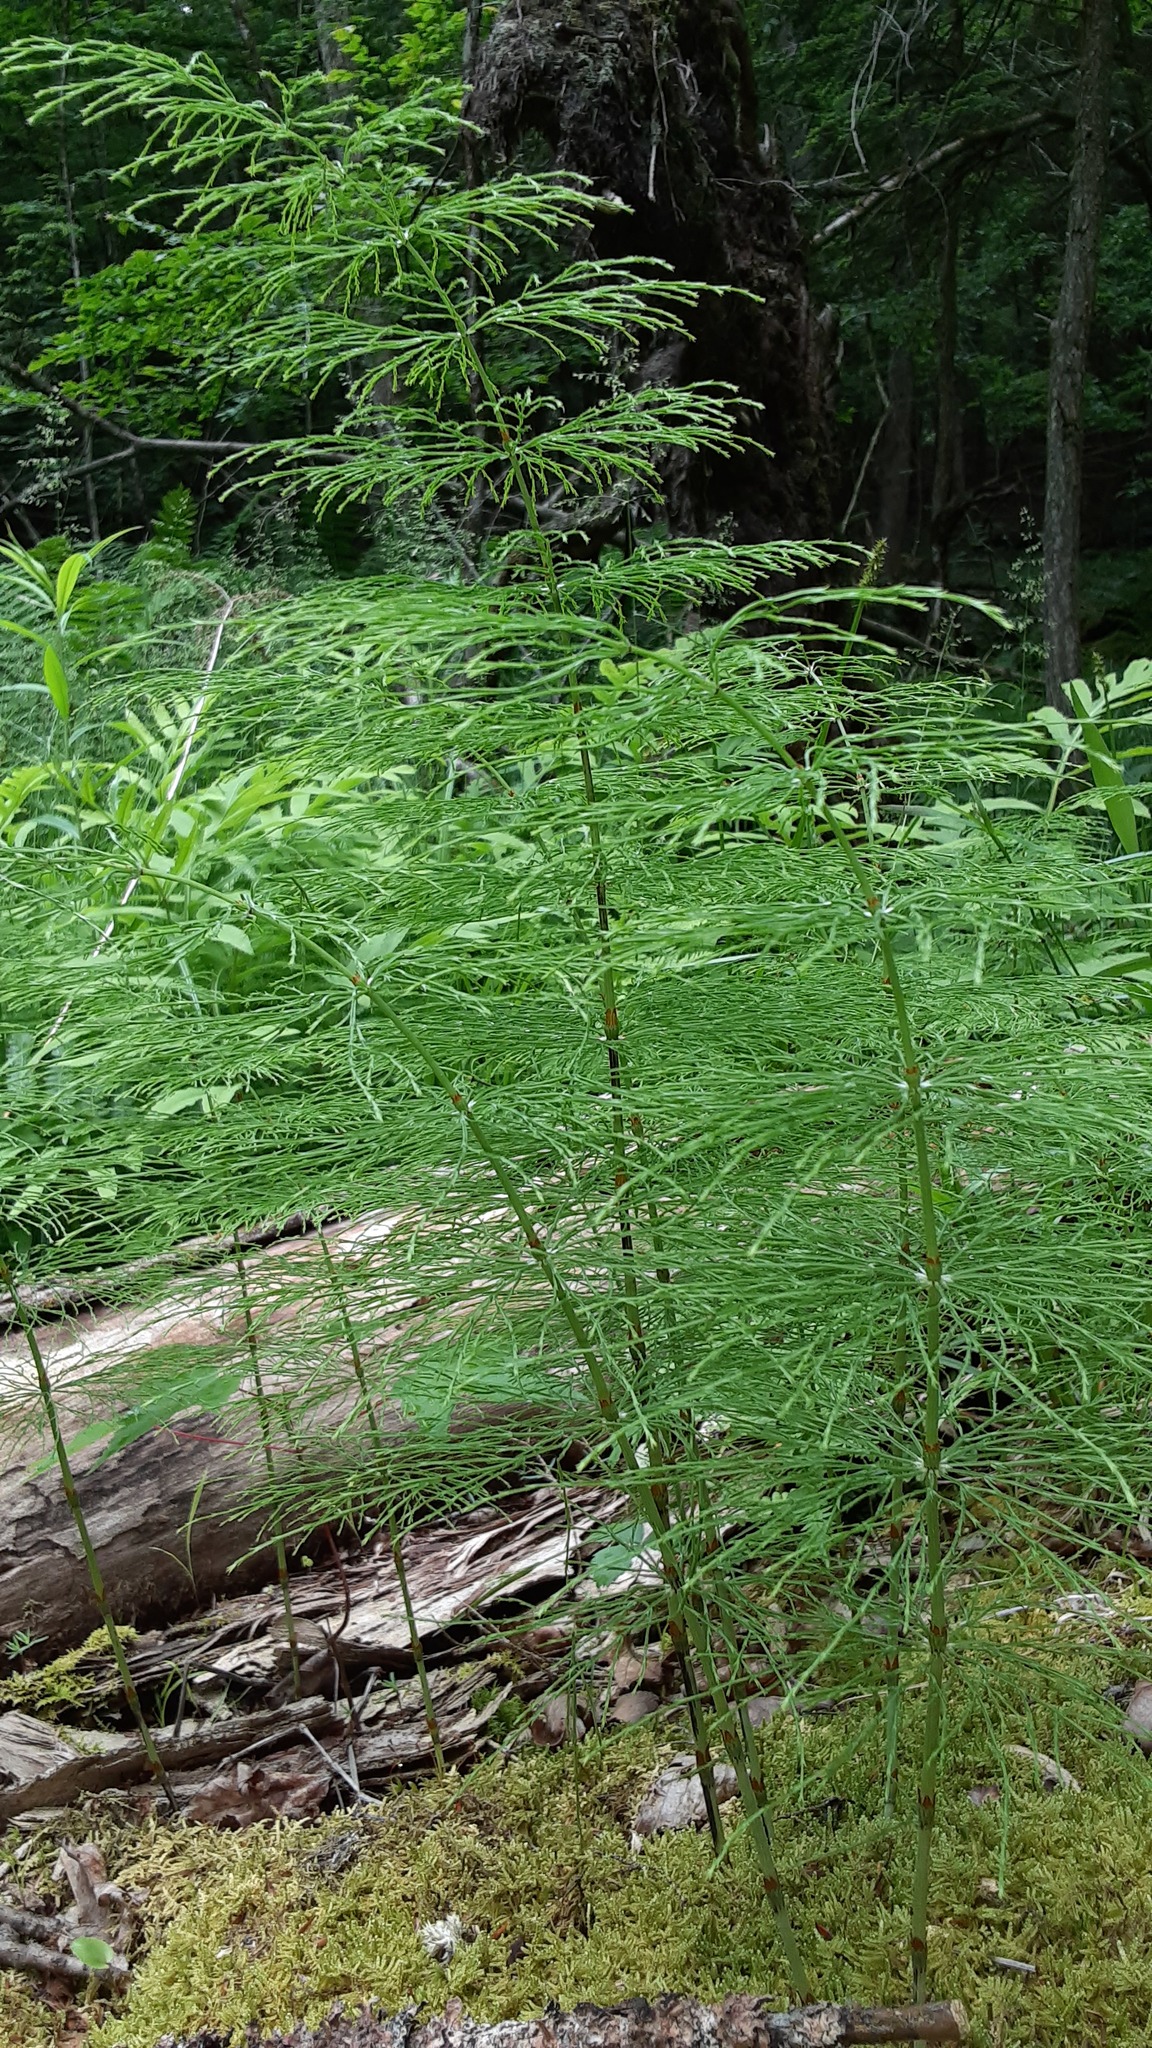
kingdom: Plantae
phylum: Tracheophyta
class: Polypodiopsida
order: Equisetales
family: Equisetaceae
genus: Equisetum
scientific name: Equisetum sylvaticum
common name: Wood horsetail
